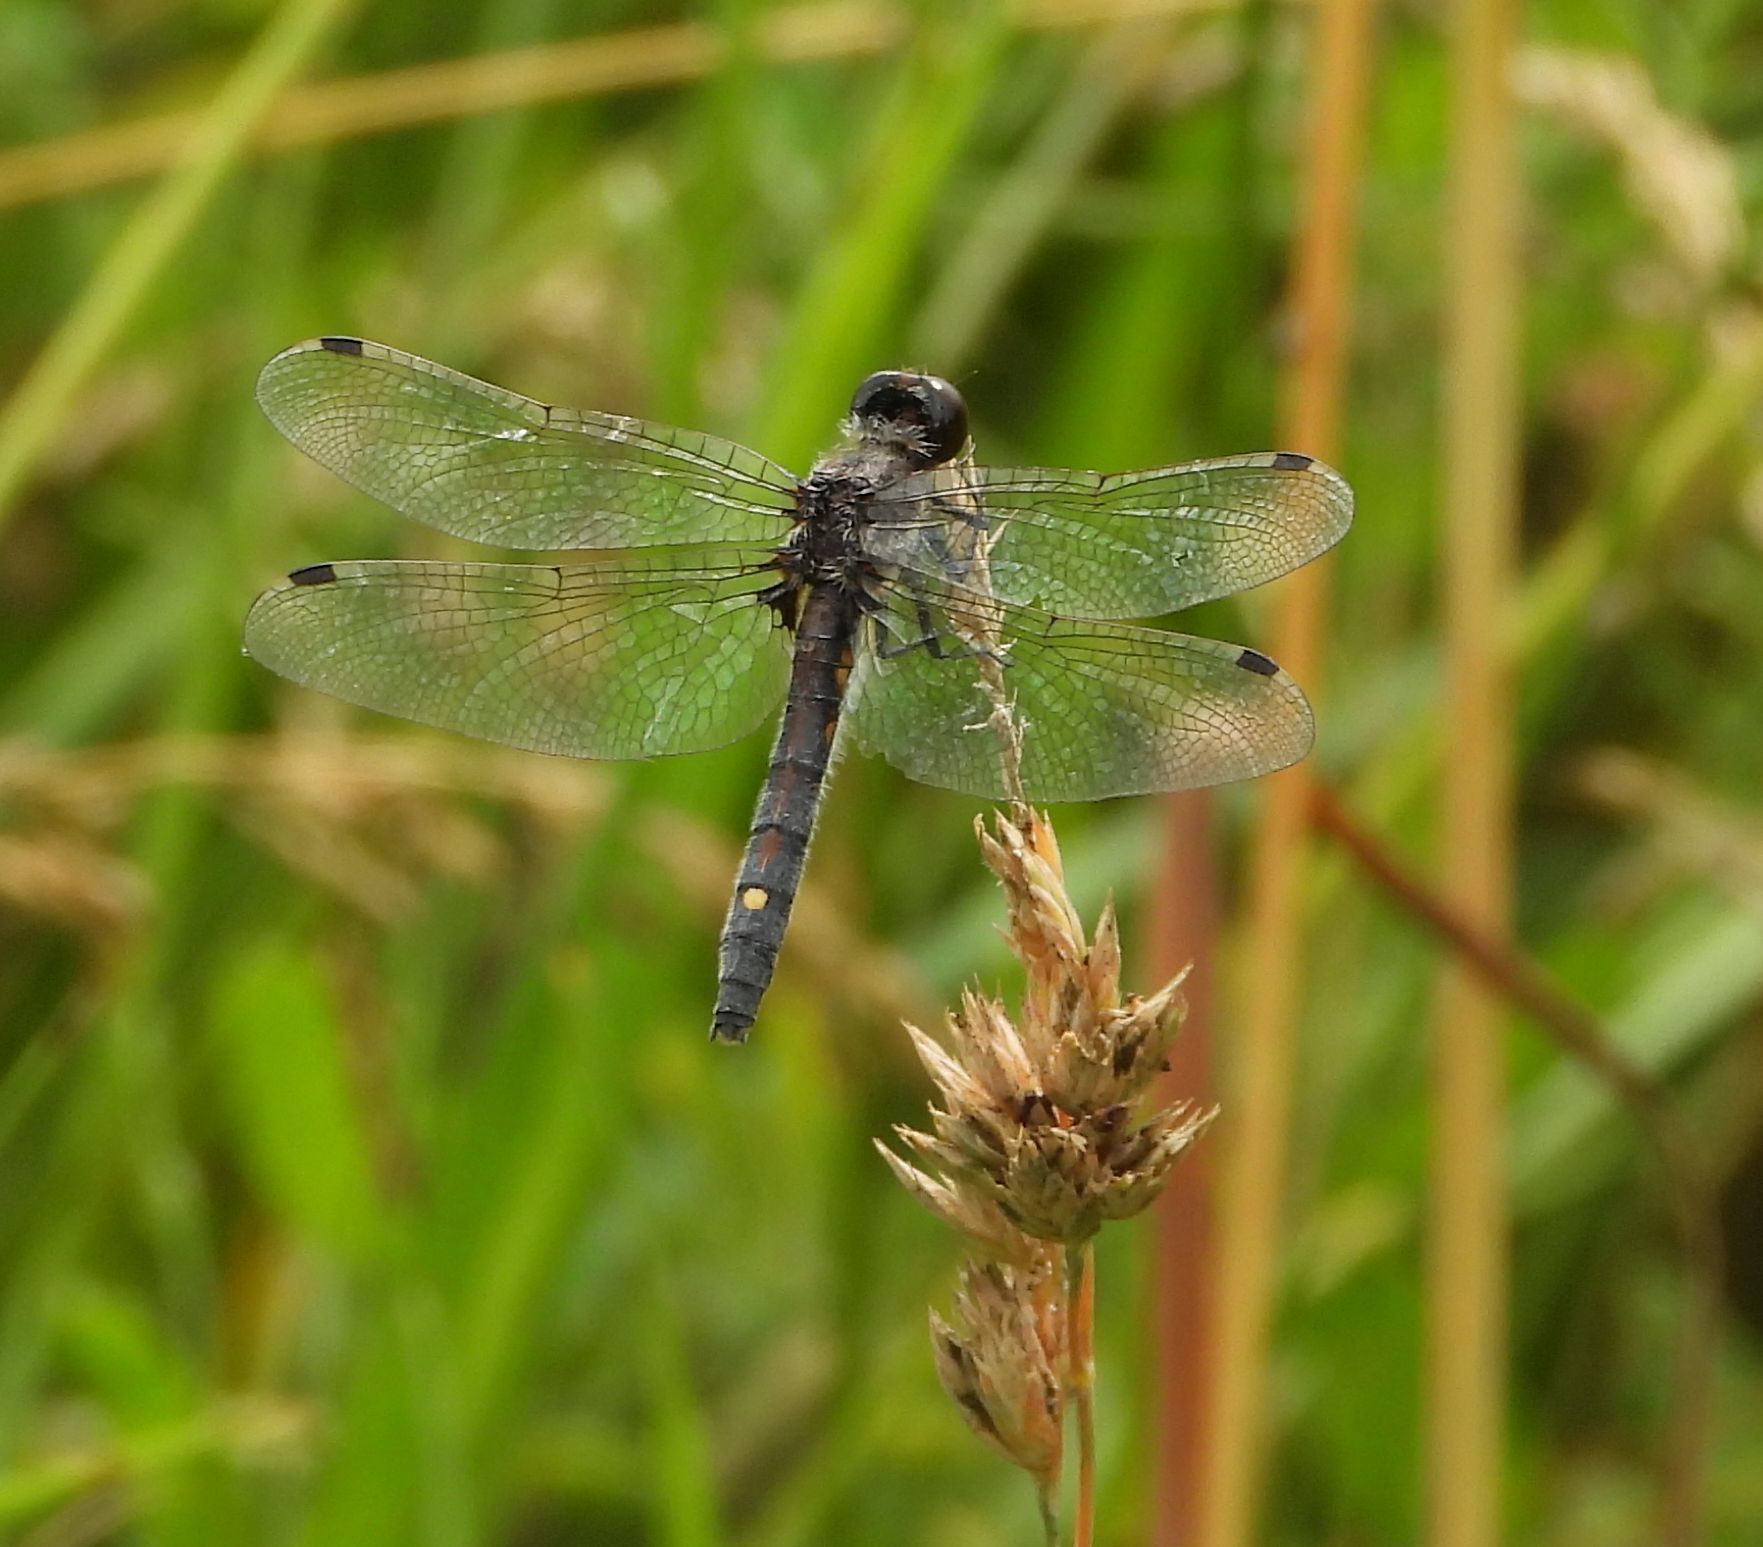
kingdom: Animalia
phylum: Arthropoda
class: Insecta
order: Odonata
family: Libellulidae
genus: Leucorrhinia
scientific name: Leucorrhinia intacta
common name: Dot-tailed whiteface
